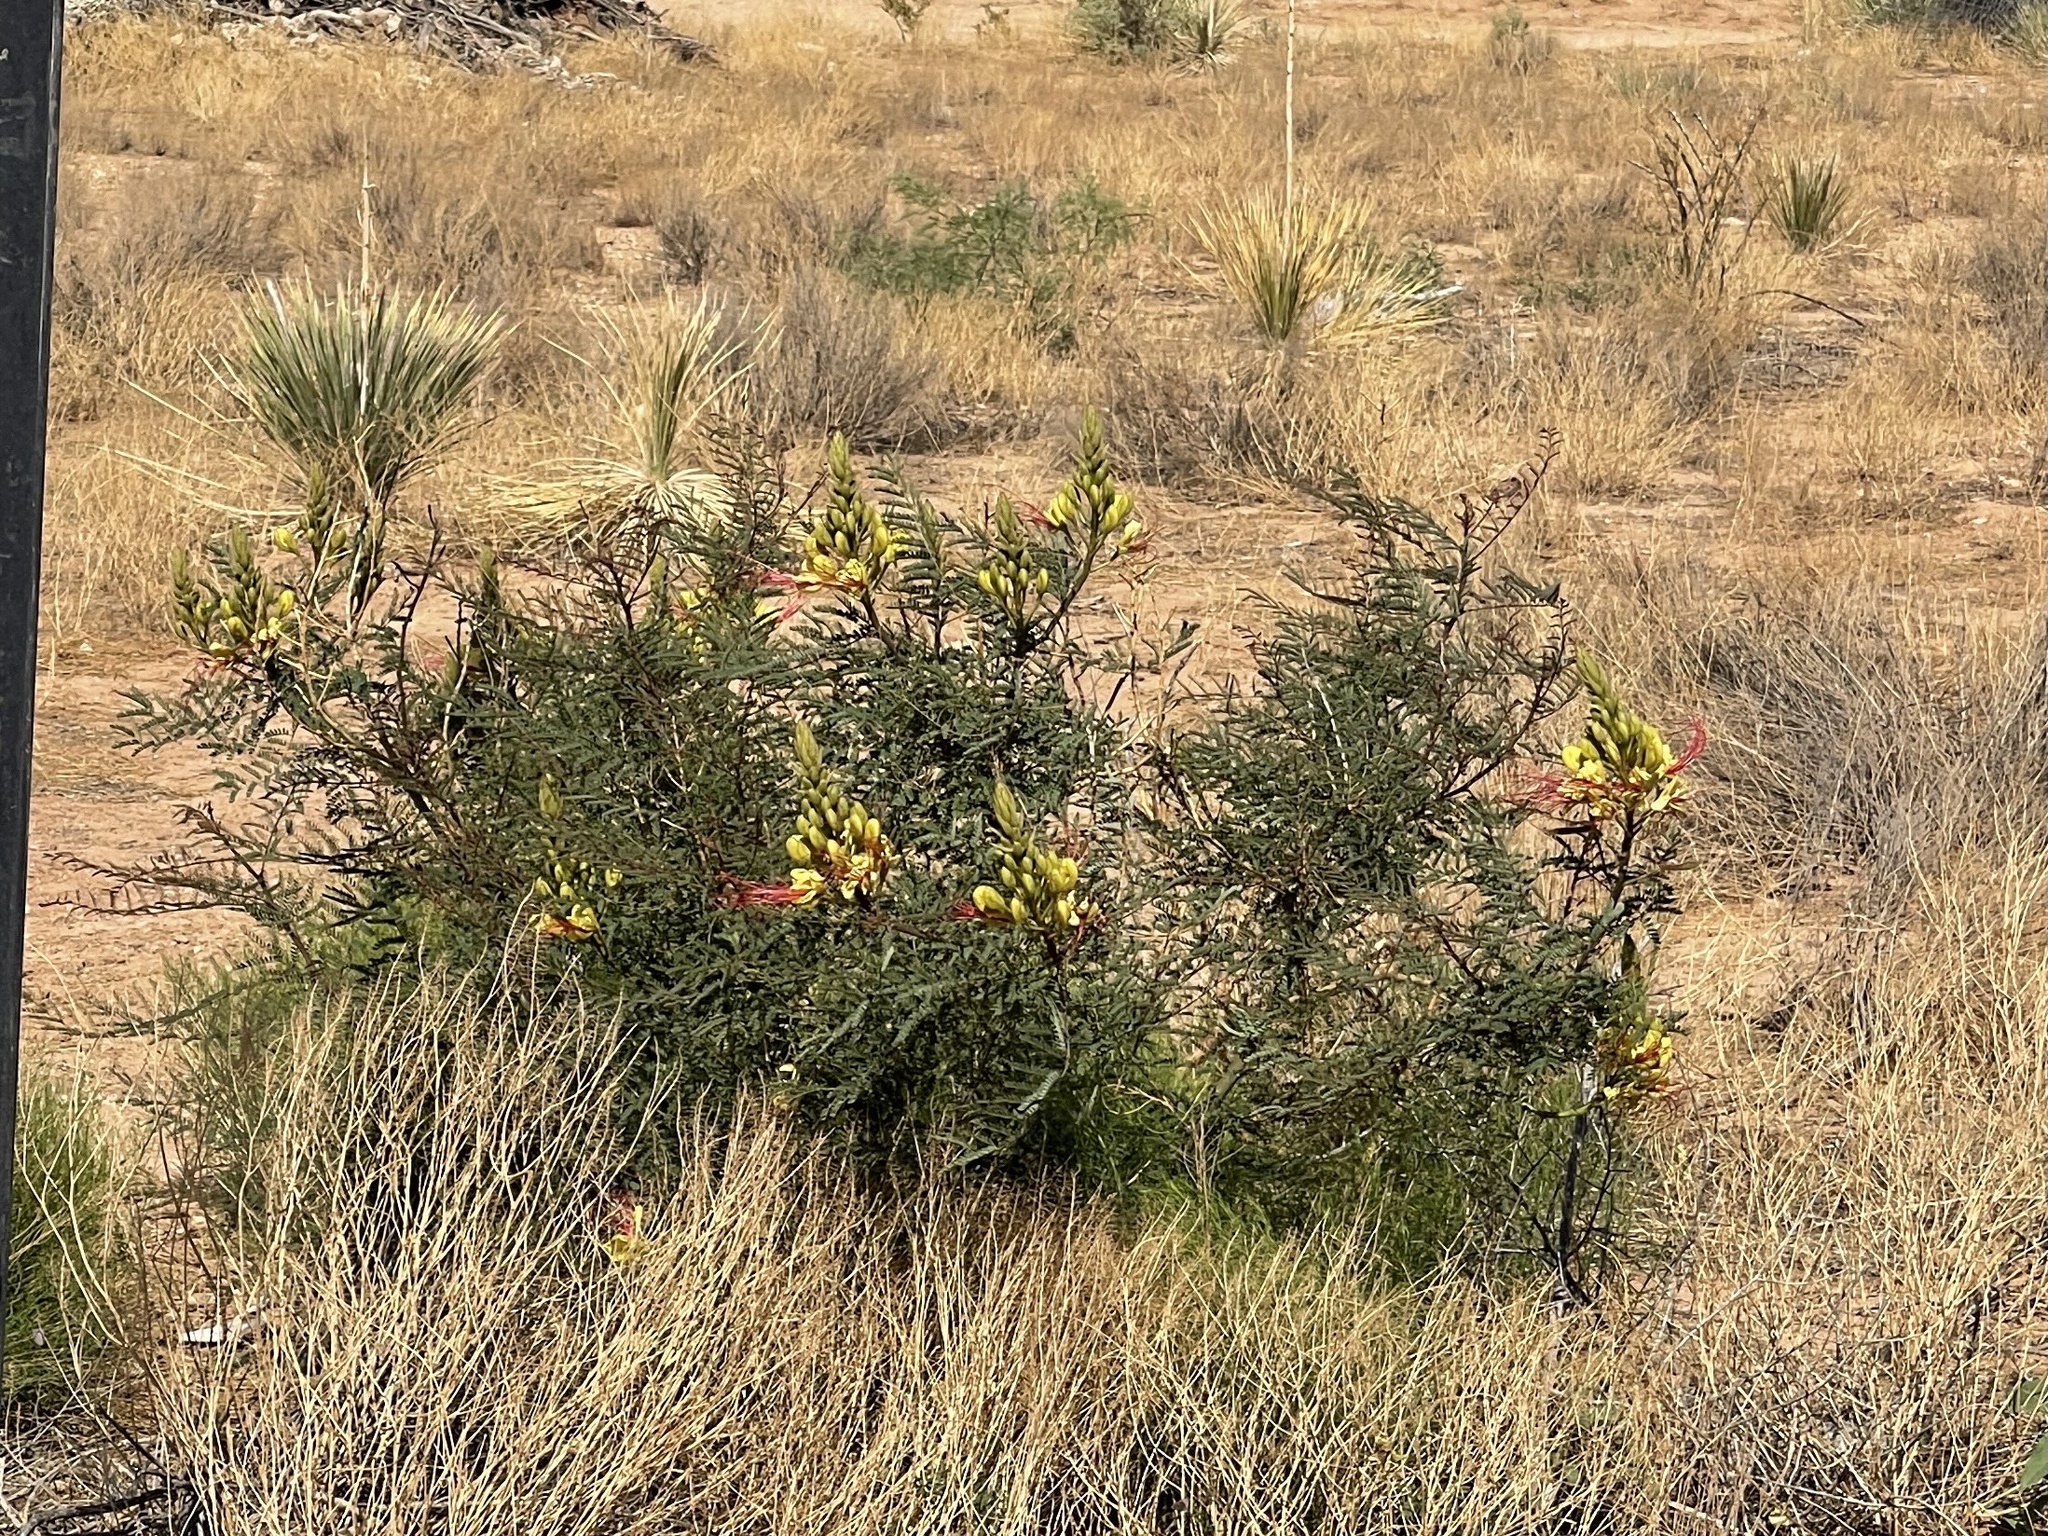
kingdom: Plantae
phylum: Tracheophyta
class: Magnoliopsida
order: Fabales
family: Fabaceae
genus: Erythrostemon
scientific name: Erythrostemon gilliesii
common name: Bird-of-paradise shrub
